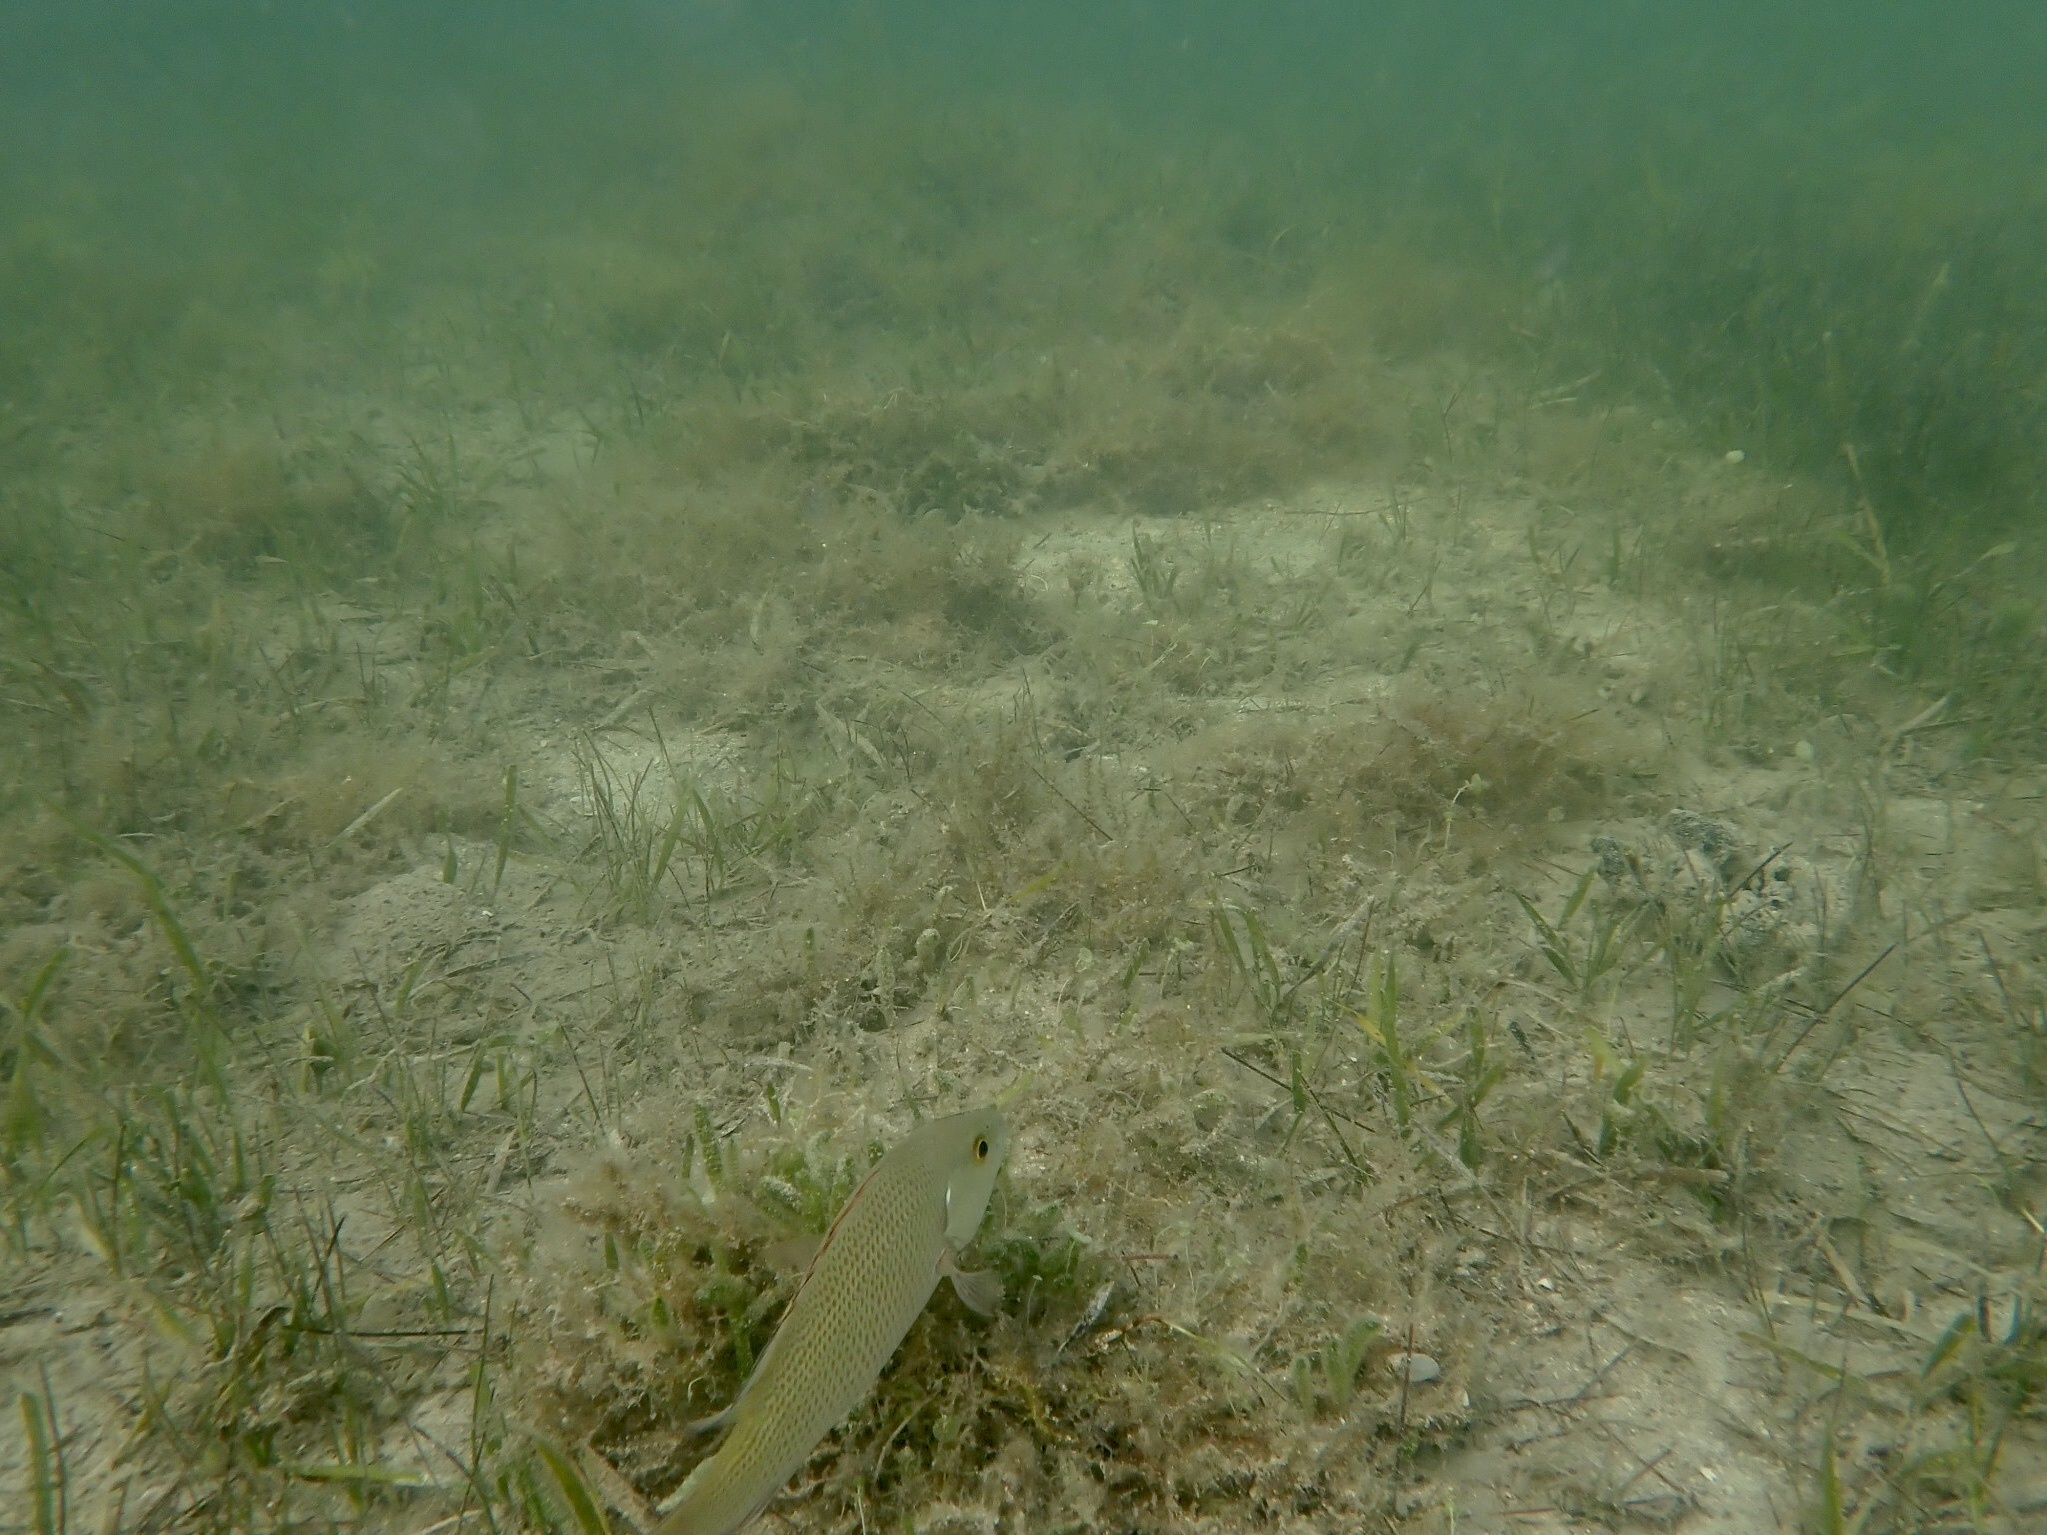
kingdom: Animalia
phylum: Chordata
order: Perciformes
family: Lutjanidae
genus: Lutjanus
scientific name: Lutjanus griseus
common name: Gray snapper
